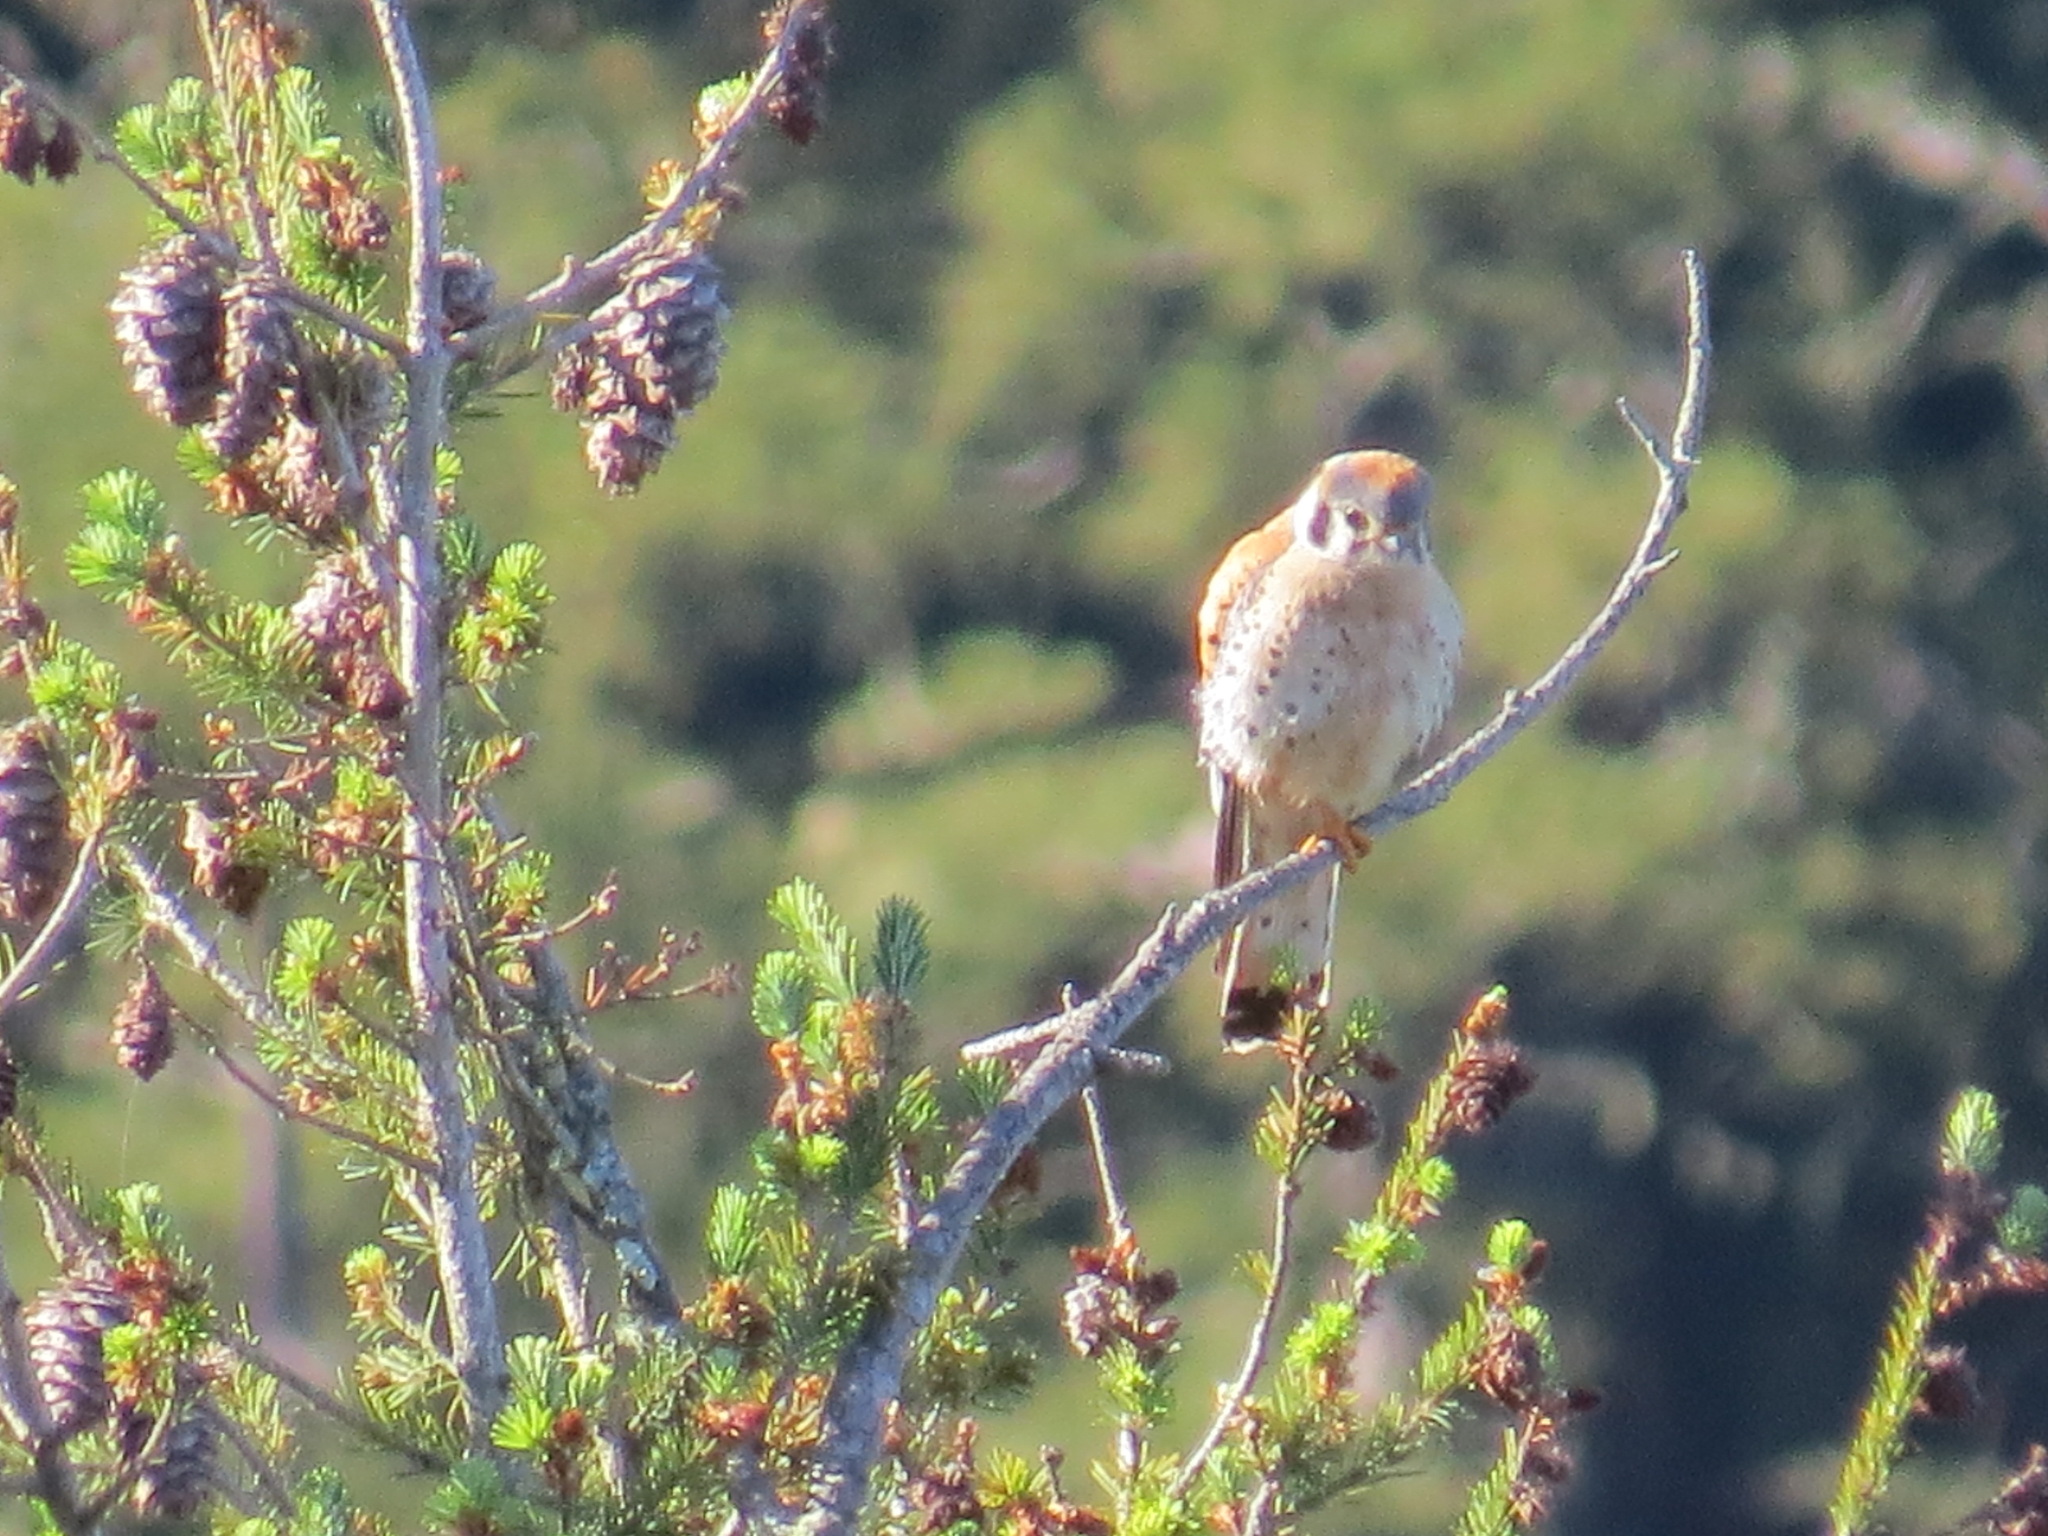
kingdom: Animalia
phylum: Chordata
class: Aves
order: Falconiformes
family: Falconidae
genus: Falco
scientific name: Falco sparverius
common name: American kestrel
